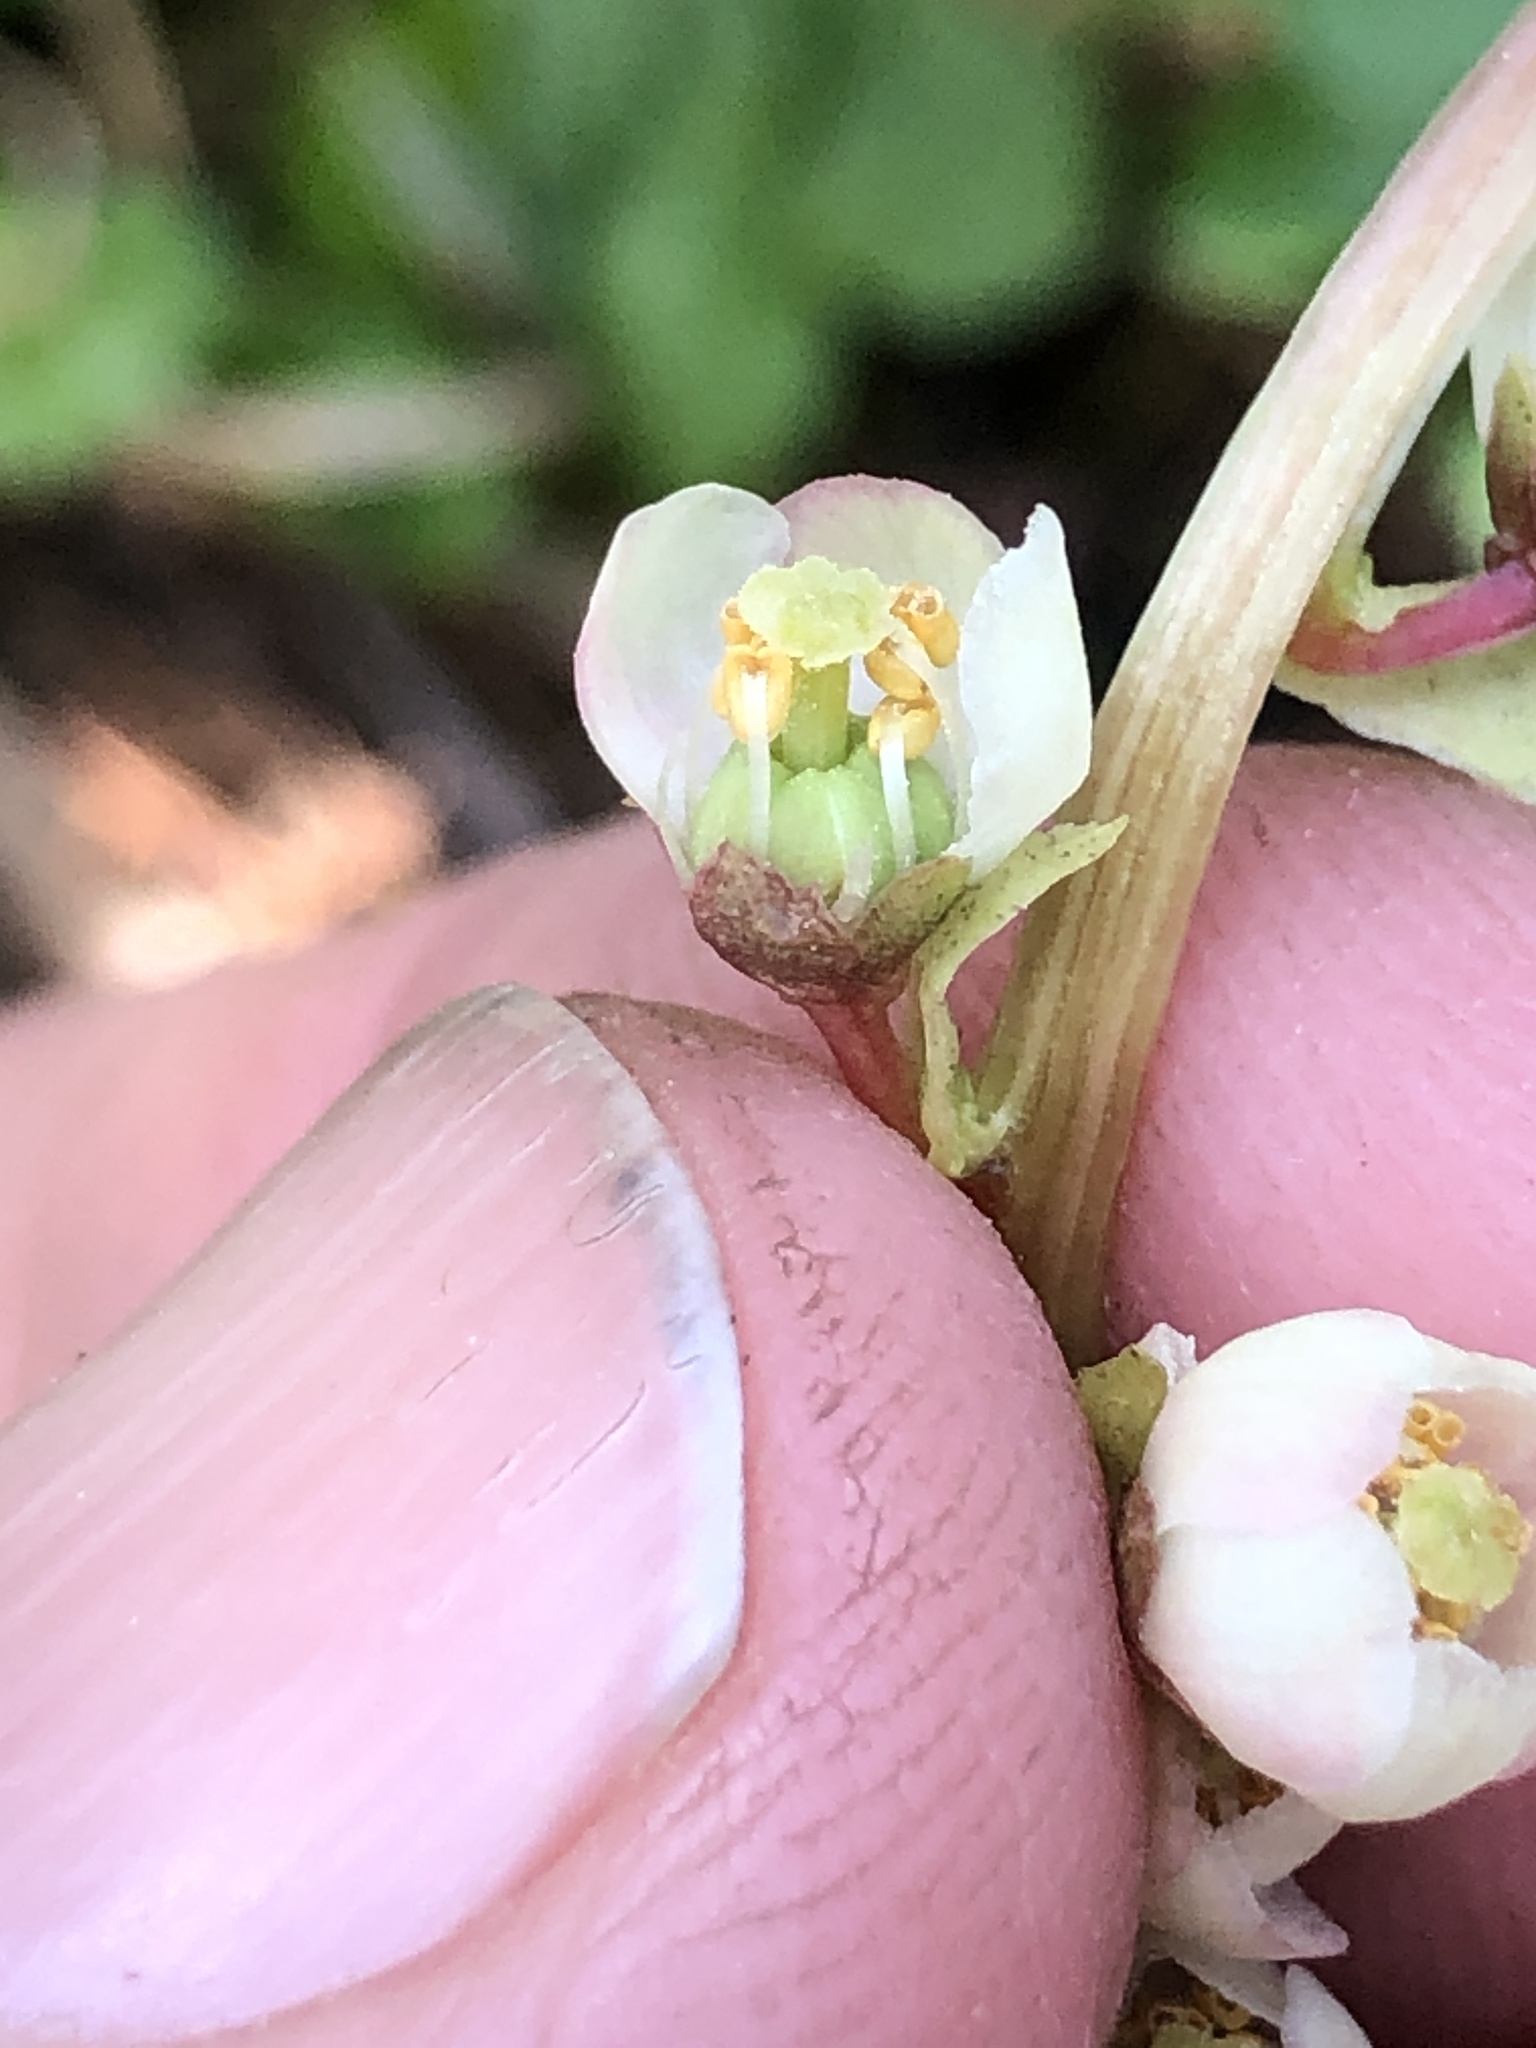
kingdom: Plantae
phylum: Tracheophyta
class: Magnoliopsida
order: Ericales
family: Ericaceae
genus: Pyrola
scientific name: Pyrola minor
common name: Common wintergreen
